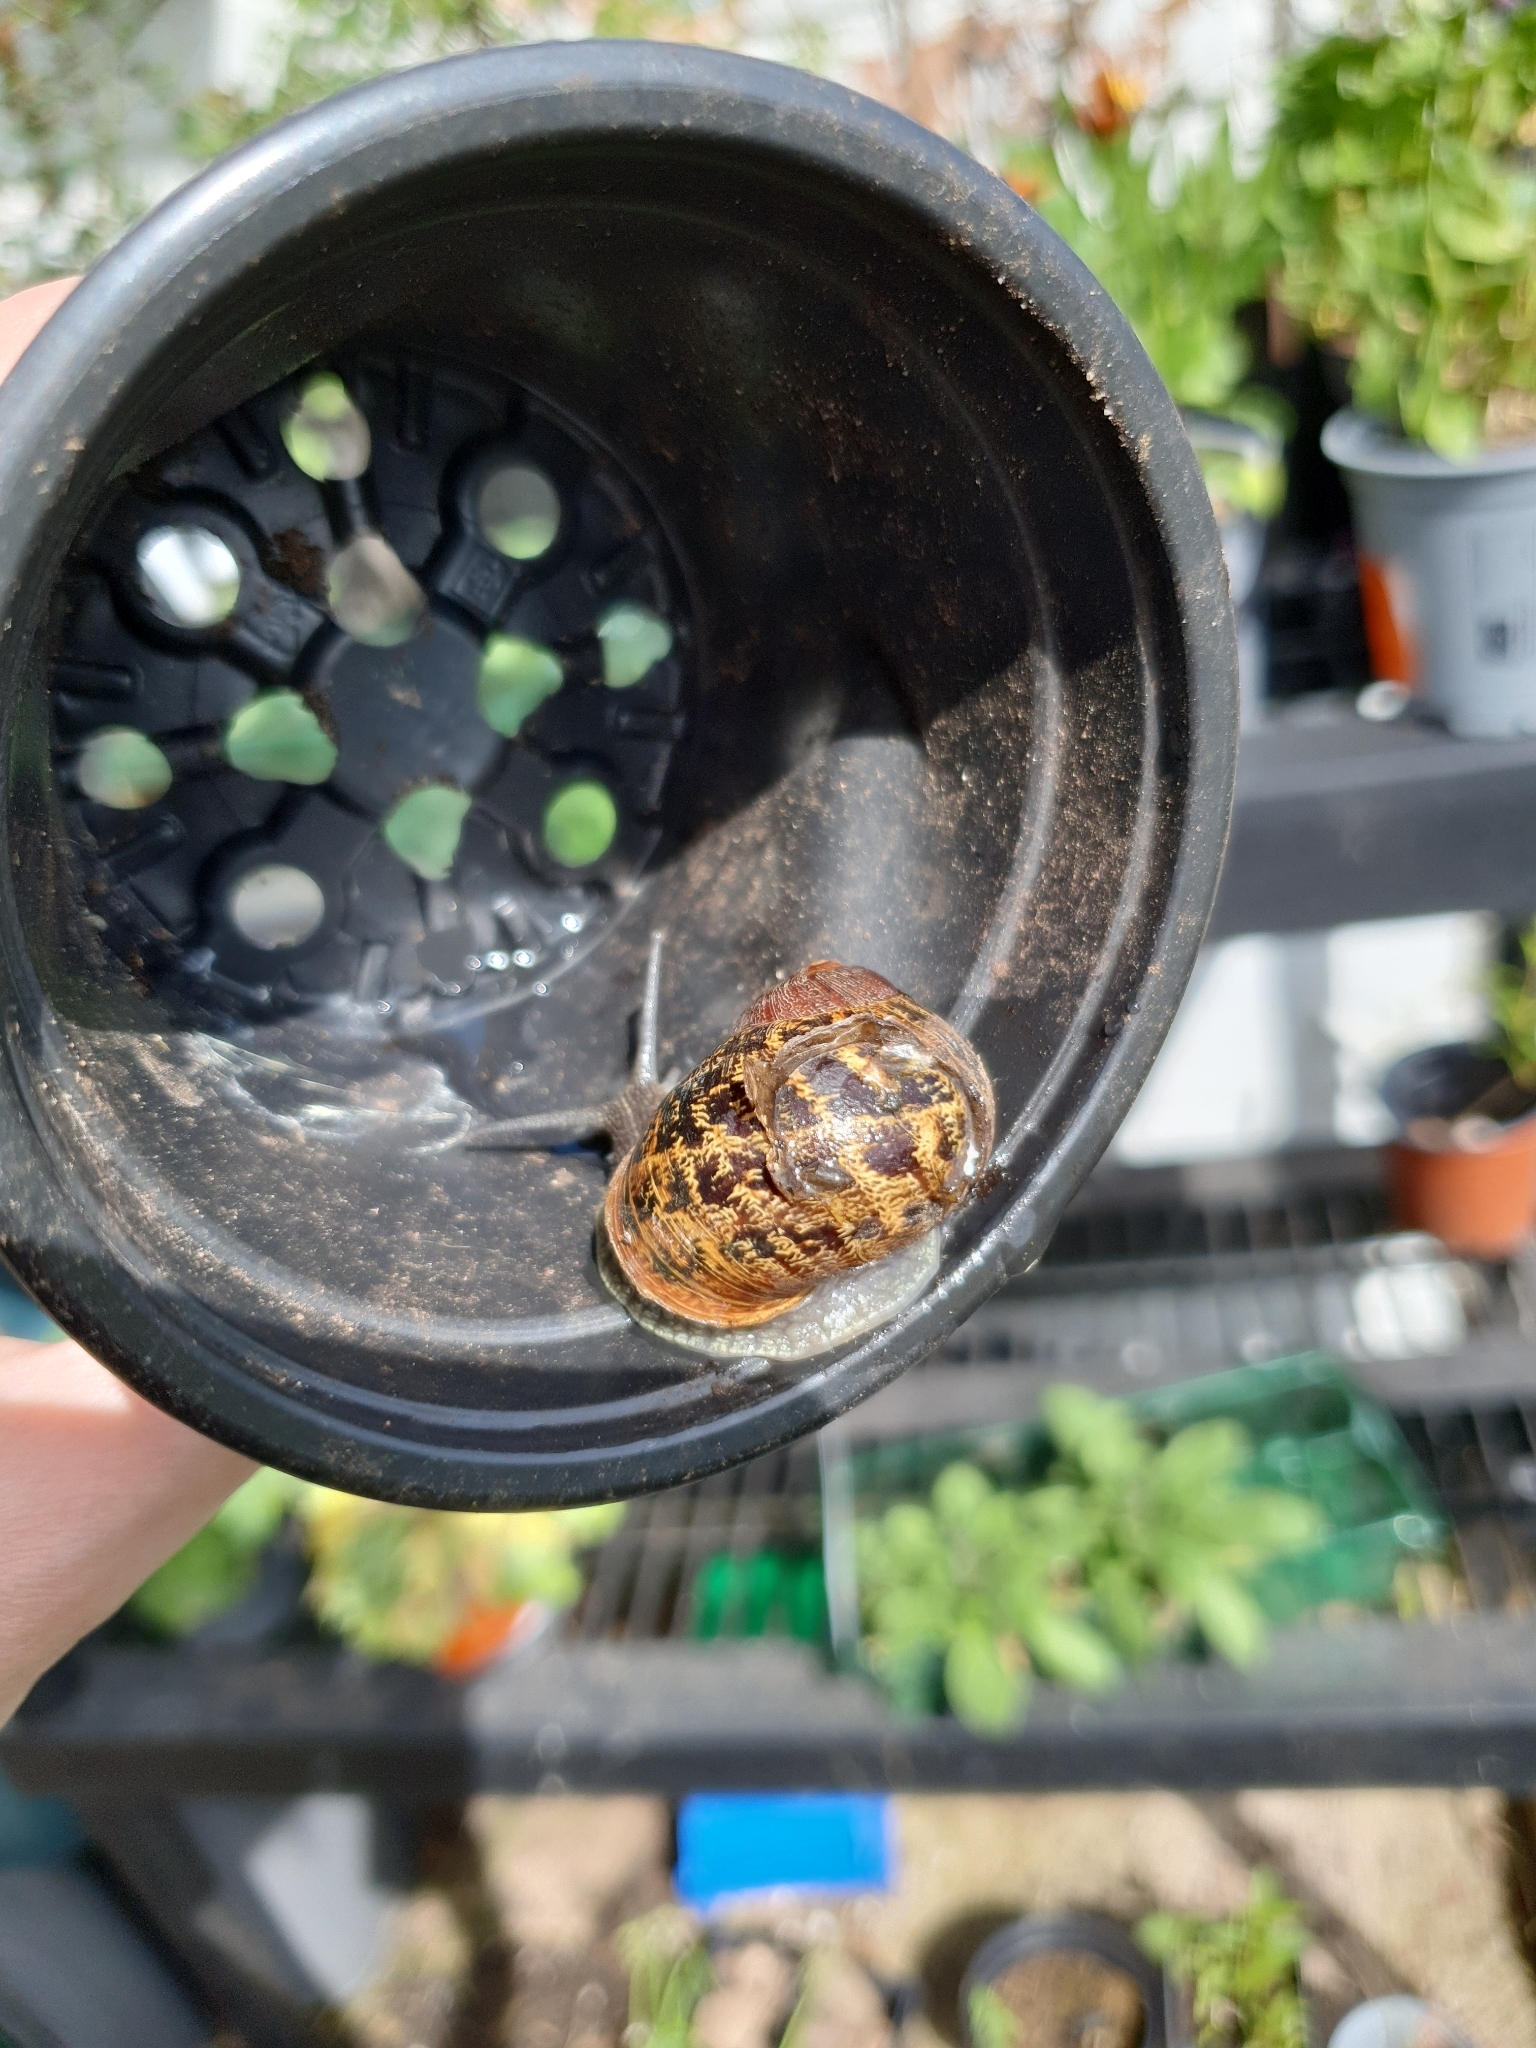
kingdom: Animalia
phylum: Mollusca
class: Gastropoda
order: Stylommatophora
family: Helicidae
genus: Cornu
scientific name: Cornu aspersum
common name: Brown garden snail
